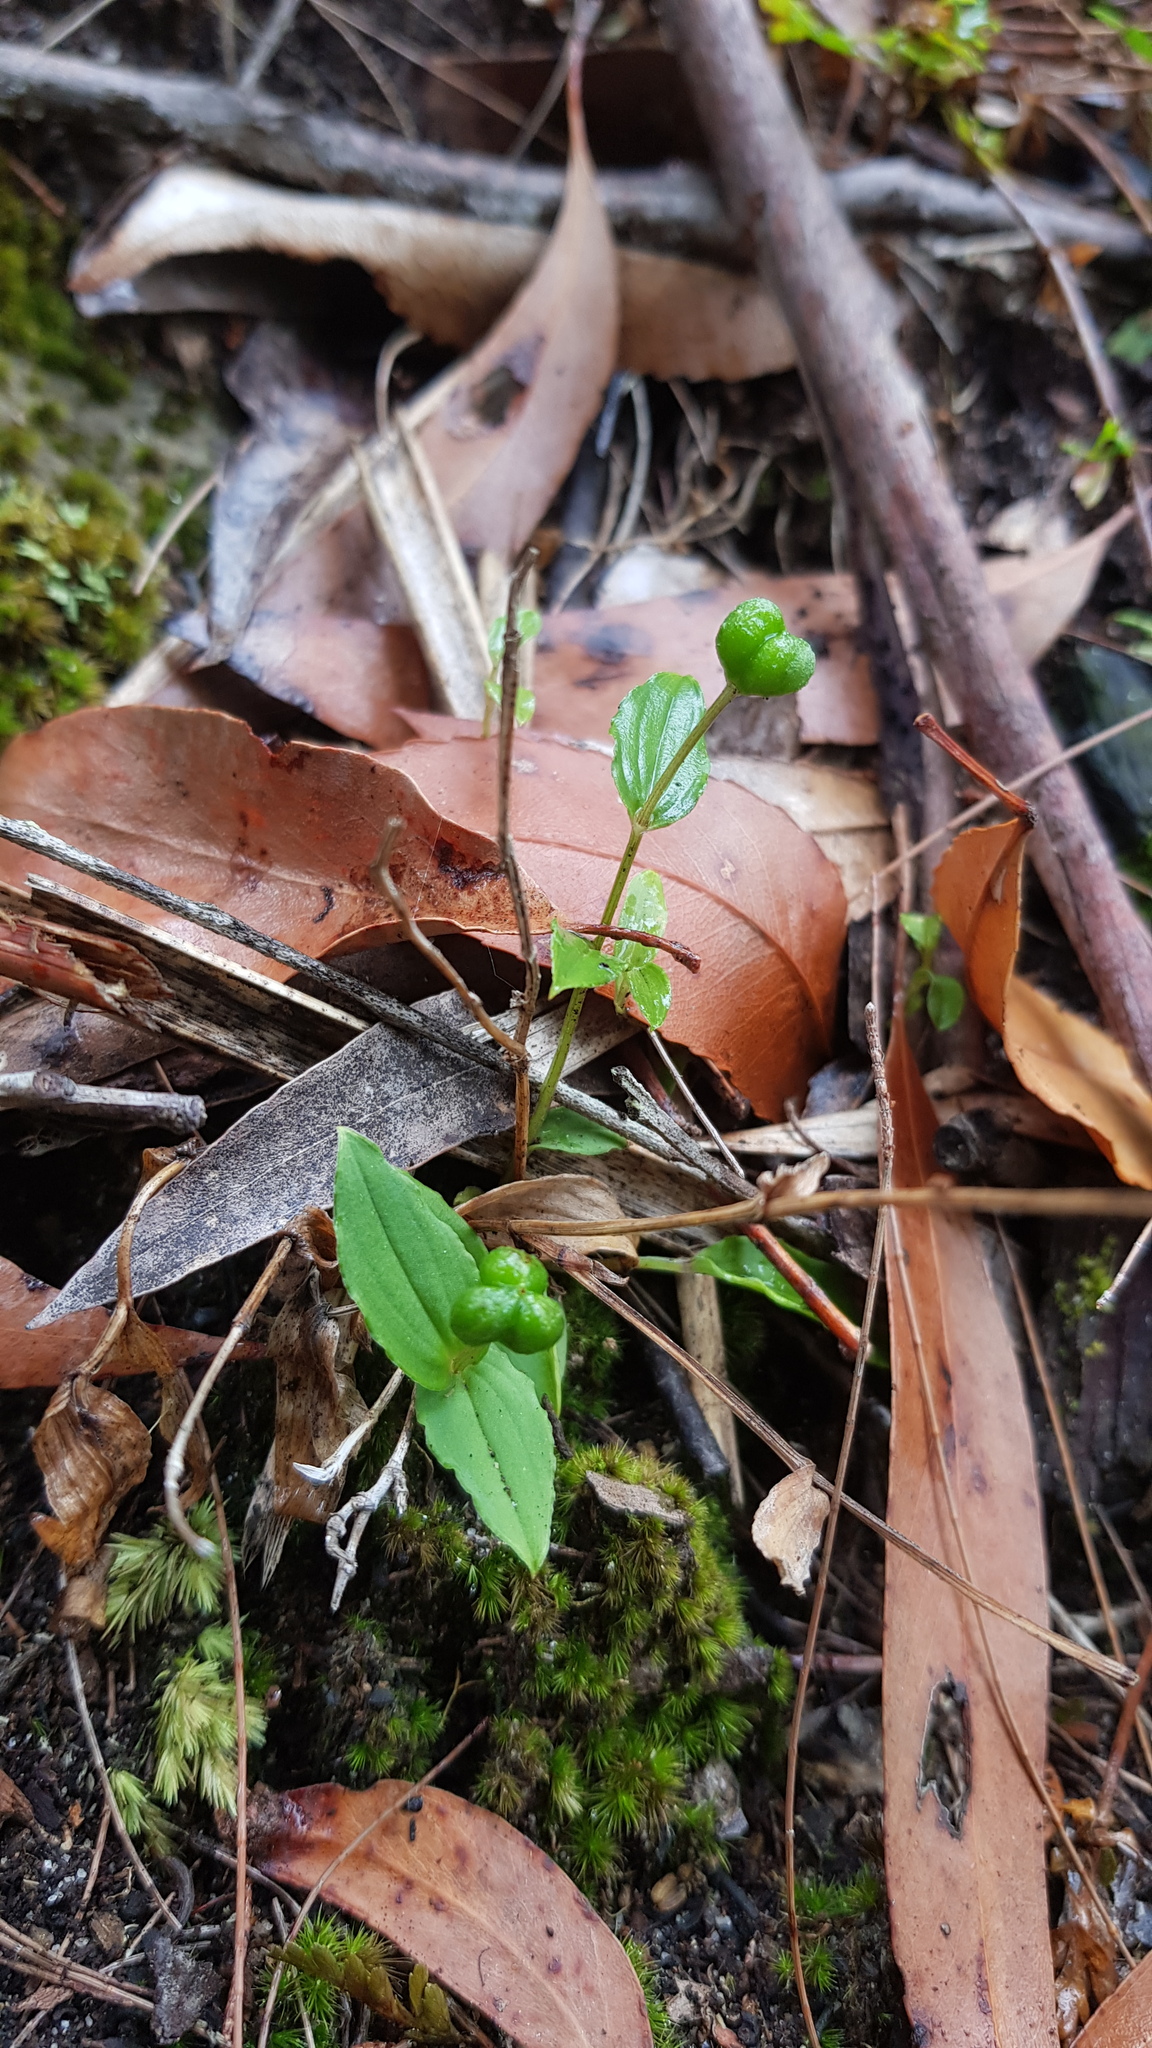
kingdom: Plantae
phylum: Tracheophyta
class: Liliopsida
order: Liliales
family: Colchicaceae
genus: Schelhammera
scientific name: Schelhammera undulata
